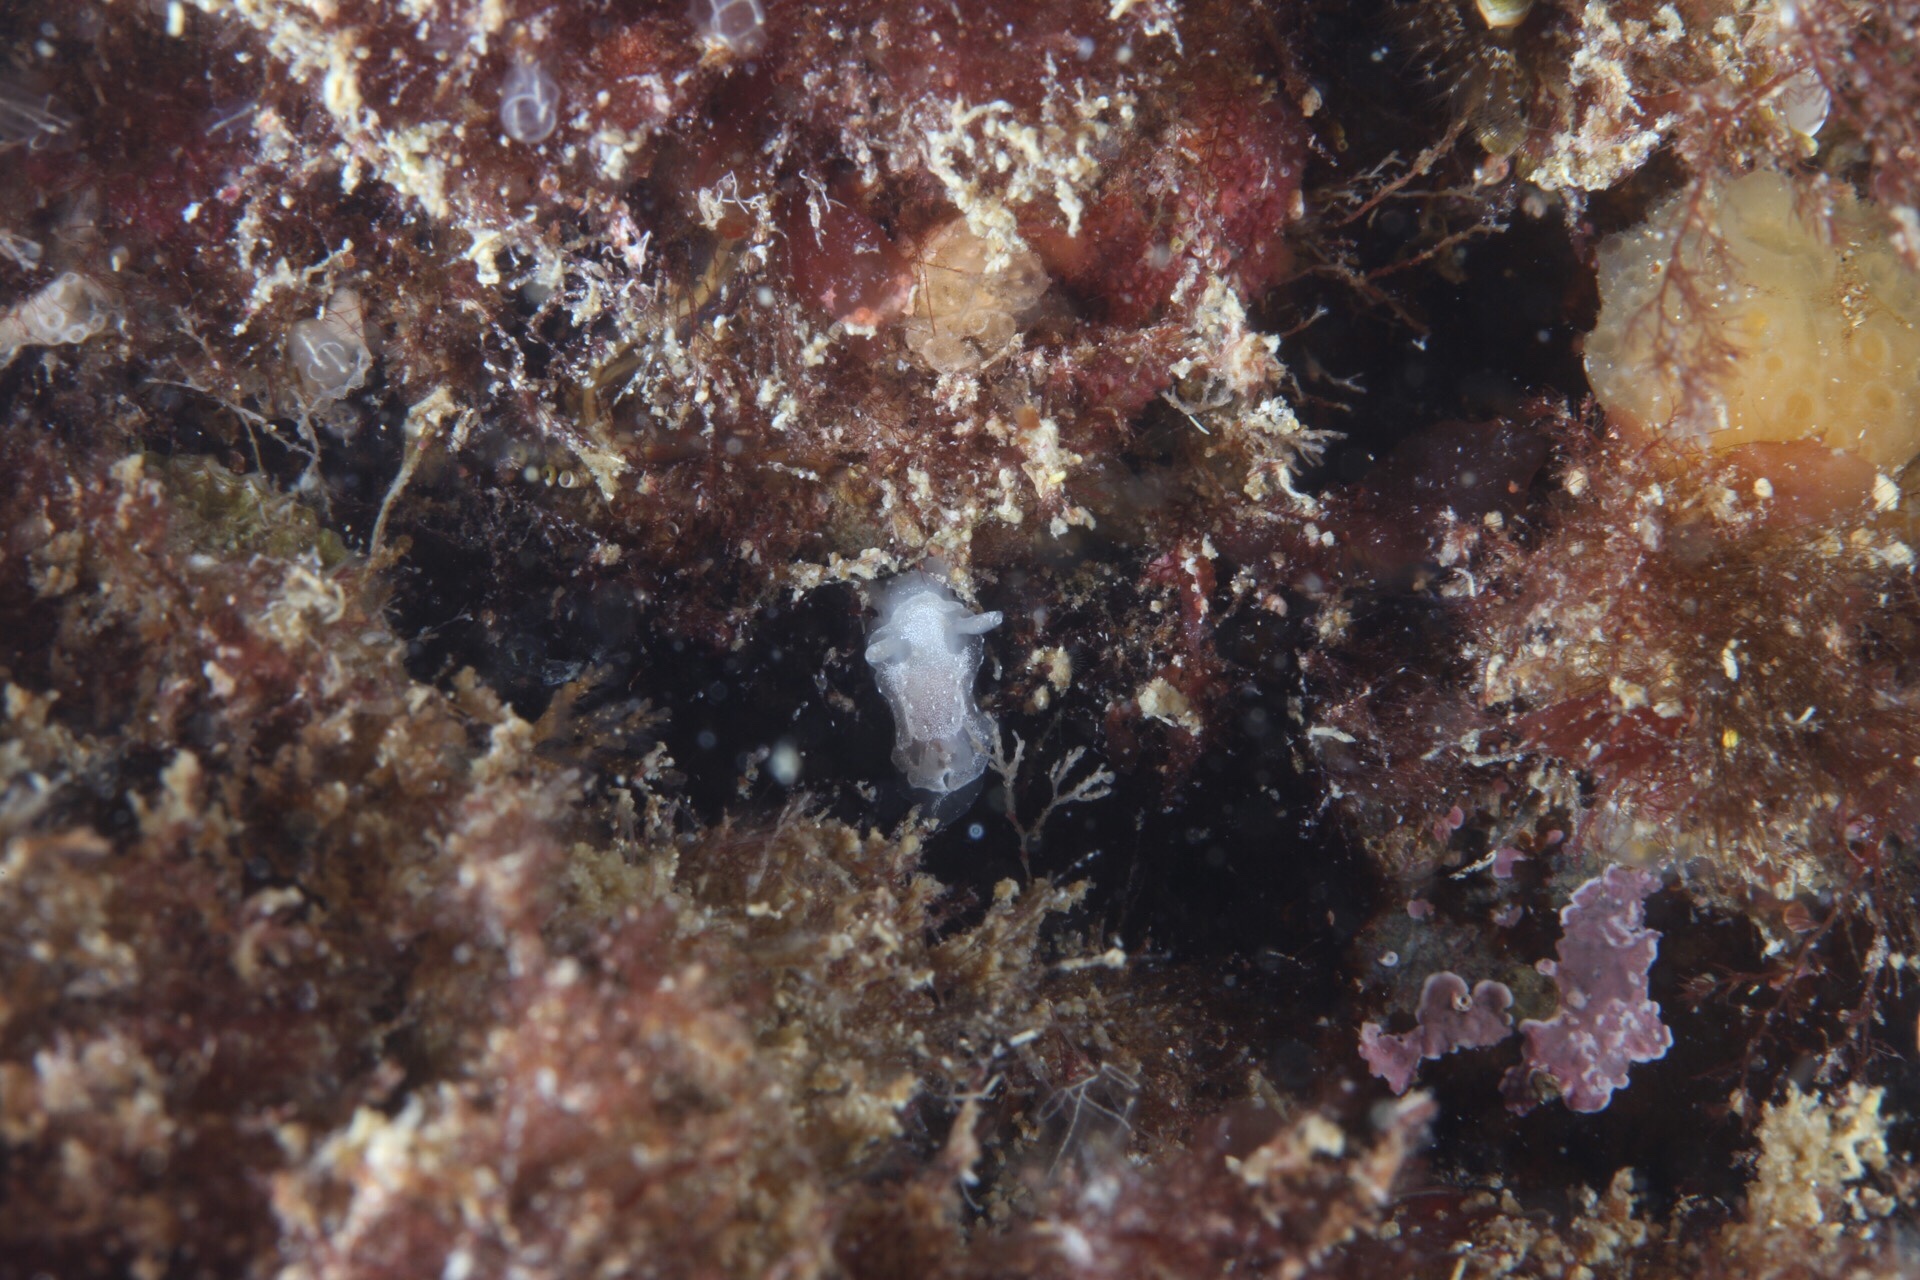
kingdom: Animalia
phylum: Mollusca
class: Gastropoda
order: Nudibranchia
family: Goniodorididae
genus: Okenia
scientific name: Okenia
